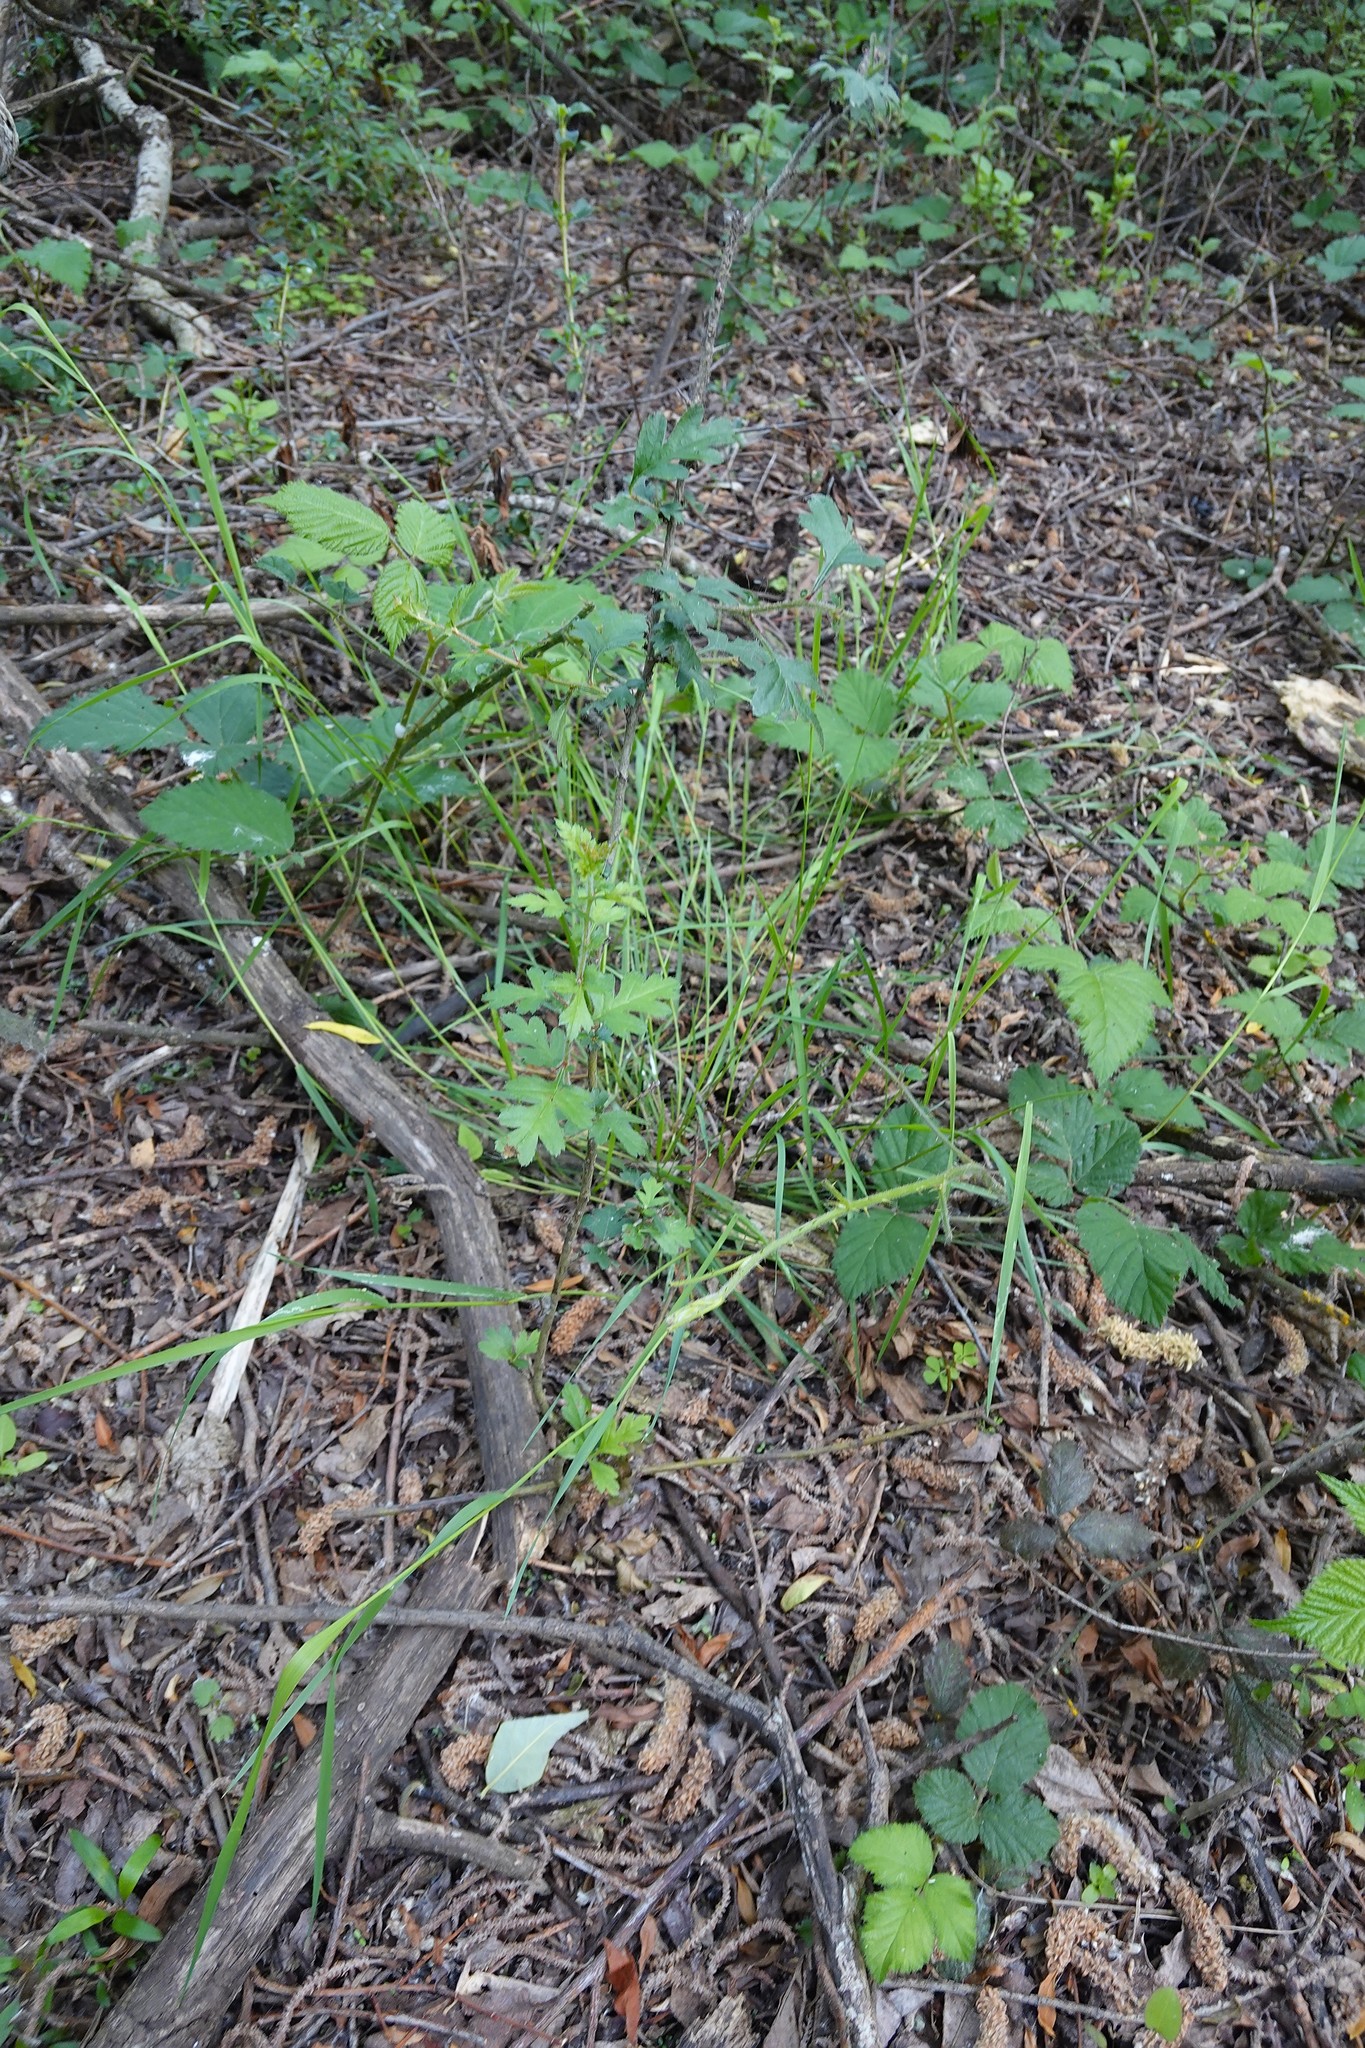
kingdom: Plantae
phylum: Tracheophyta
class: Magnoliopsida
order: Rosales
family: Rosaceae
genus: Crataegus
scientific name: Crataegus monogyna
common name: Hawthorn
